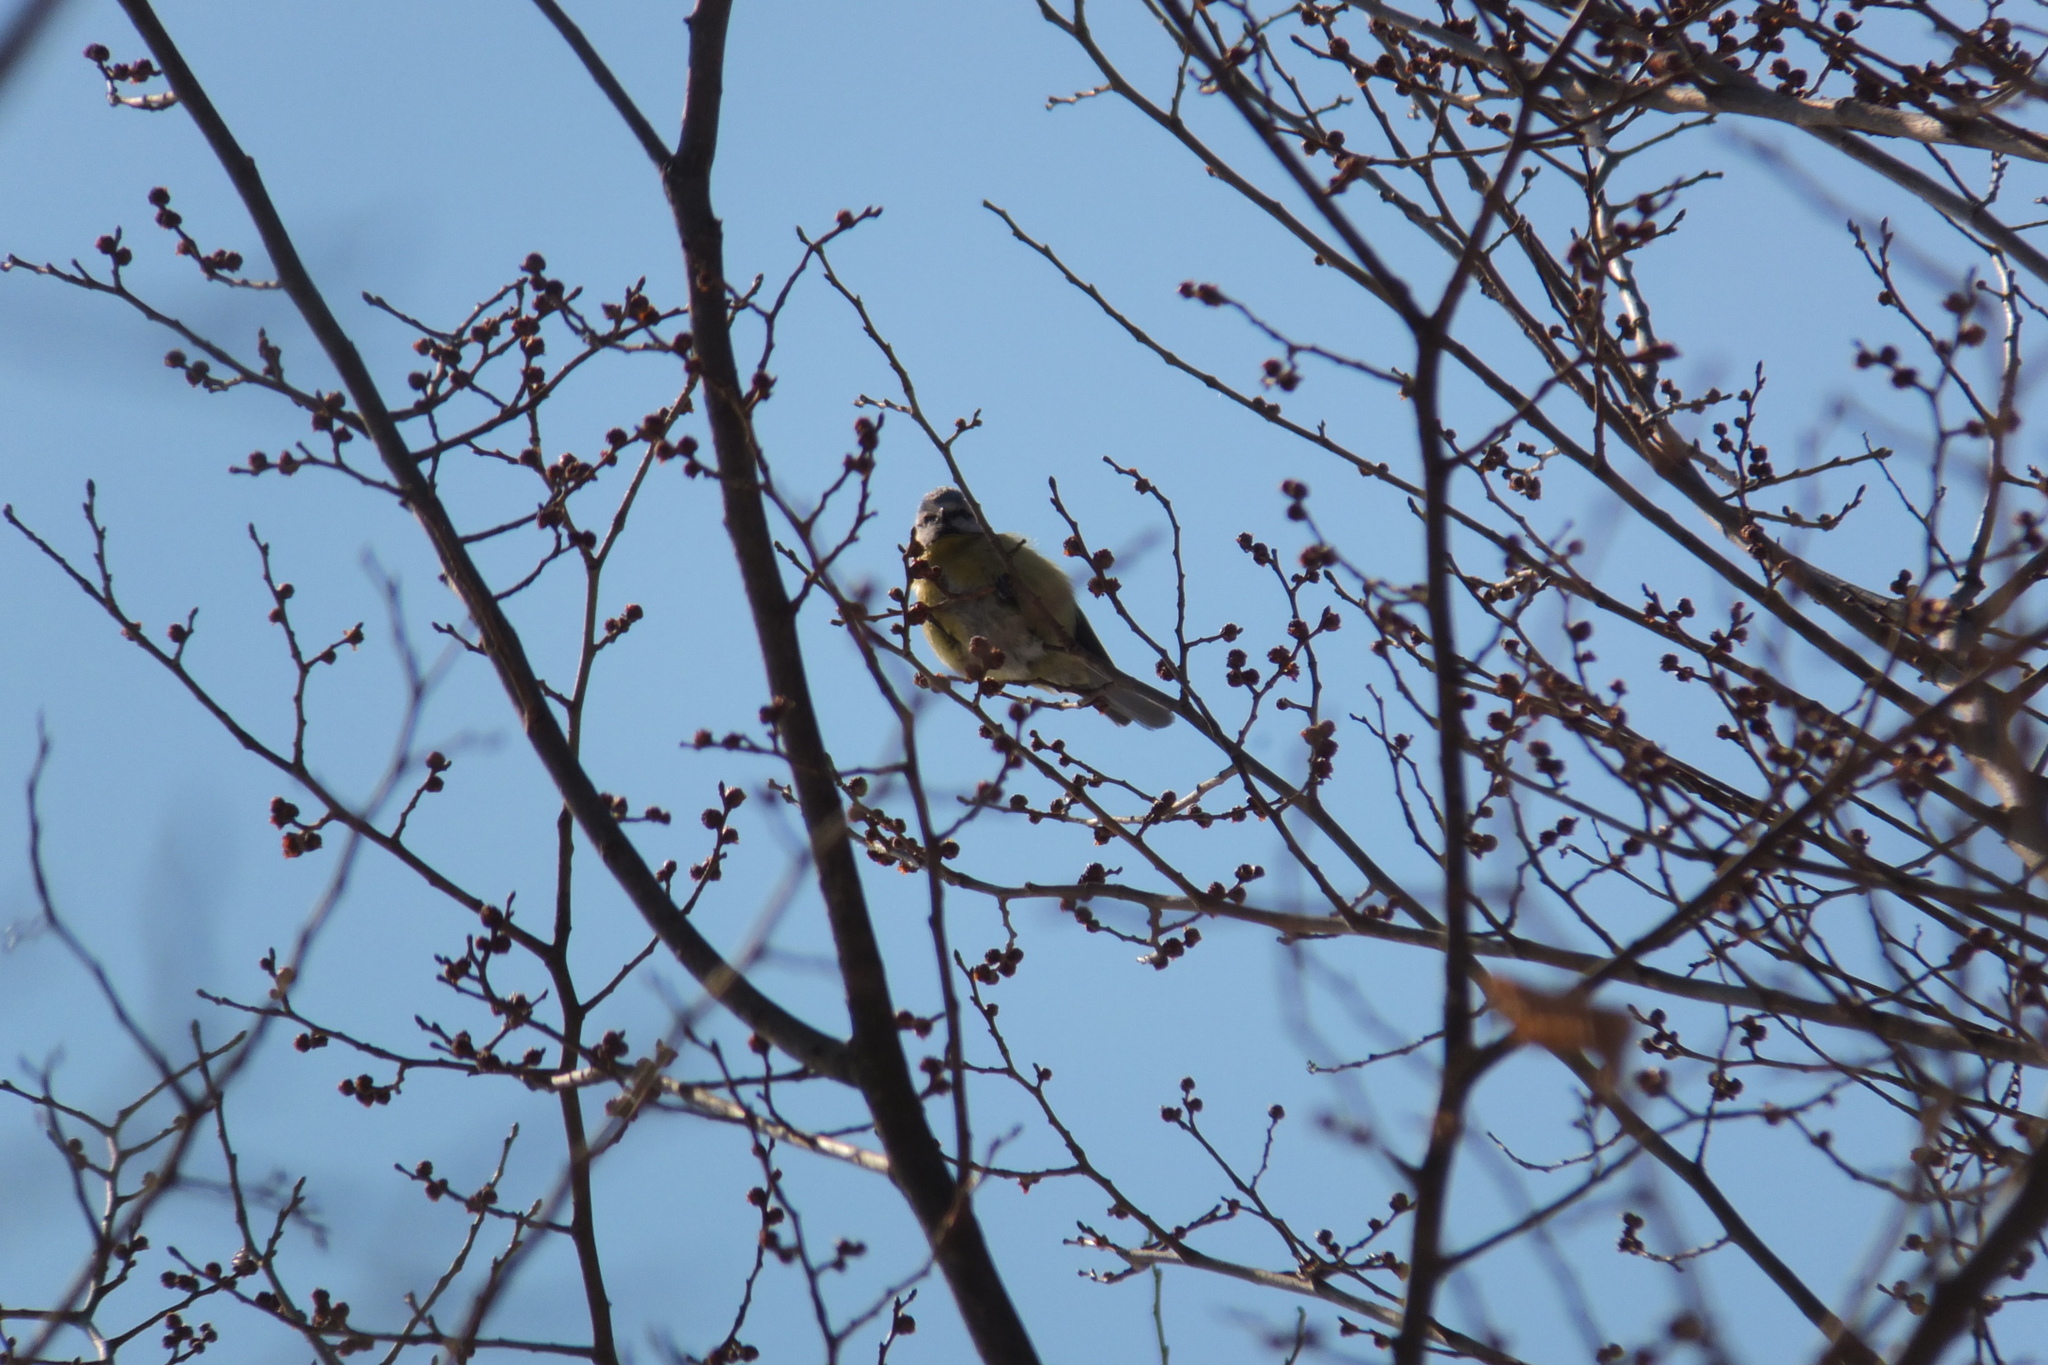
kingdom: Animalia
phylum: Chordata
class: Aves
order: Passeriformes
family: Paridae
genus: Cyanistes
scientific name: Cyanistes caeruleus
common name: Eurasian blue tit
